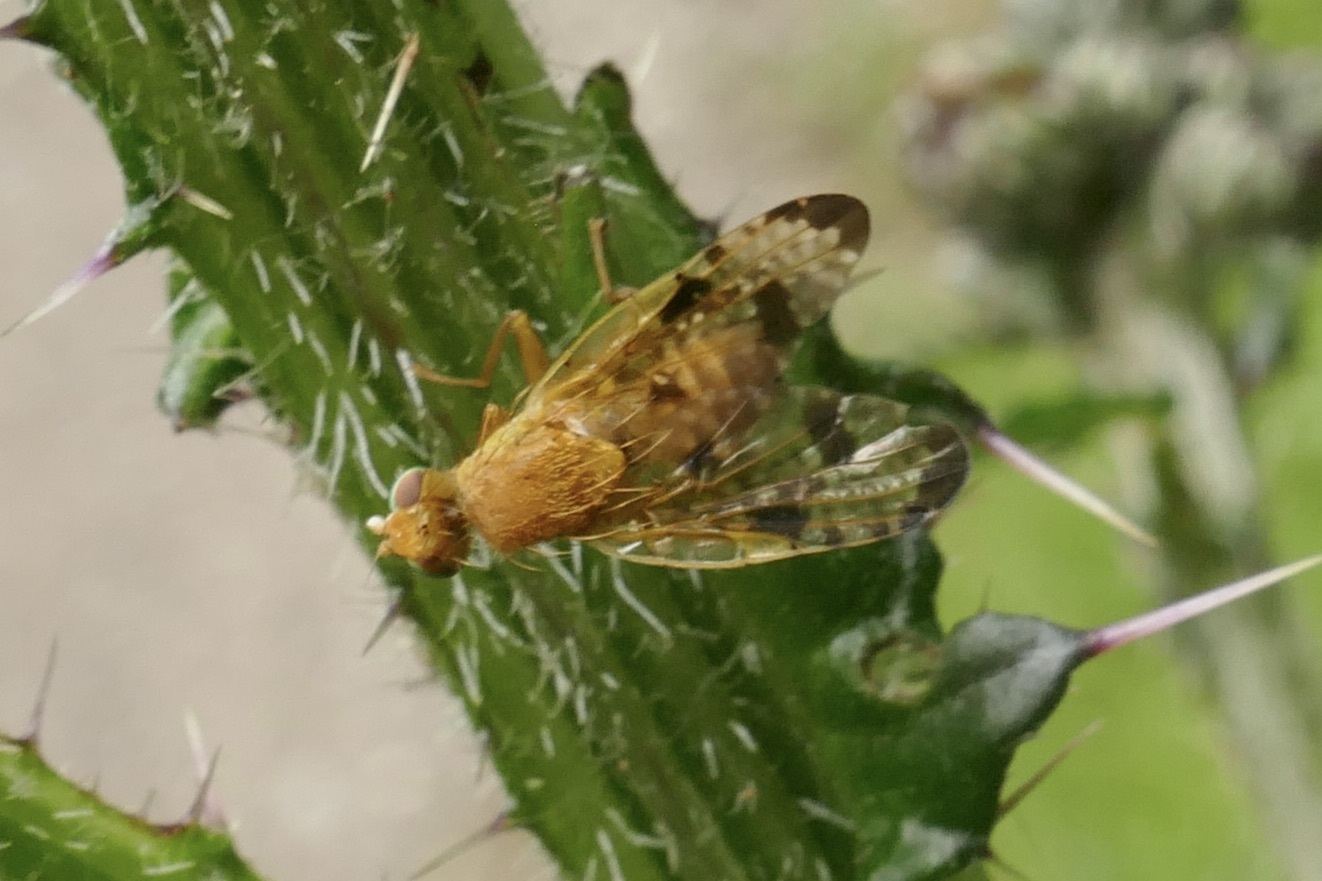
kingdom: Animalia
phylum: Arthropoda
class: Insecta
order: Diptera
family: Tephritidae
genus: Xyphosia
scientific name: Xyphosia miliaria
